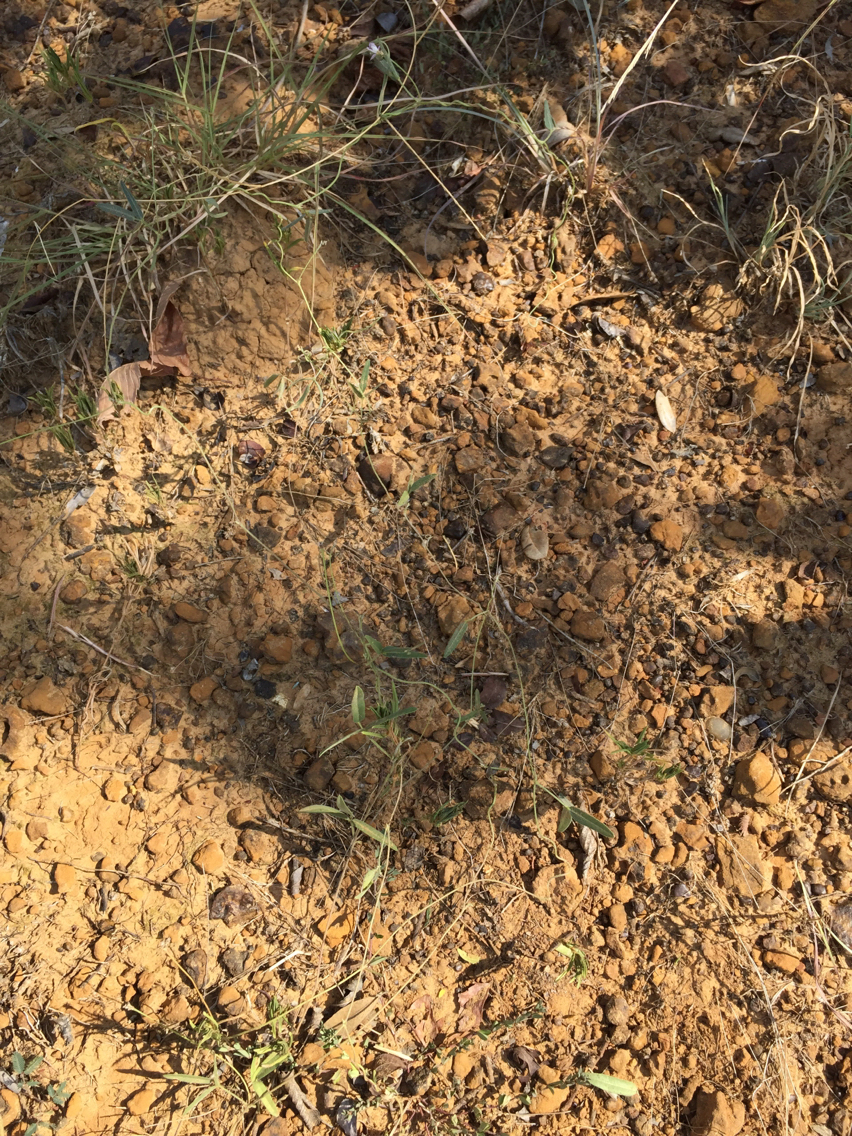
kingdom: Plantae
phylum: Tracheophyta
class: Magnoliopsida
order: Fabales
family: Fabaceae
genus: Strophostyles
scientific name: Strophostyles leiosperma
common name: Smooth-seed wild bean
